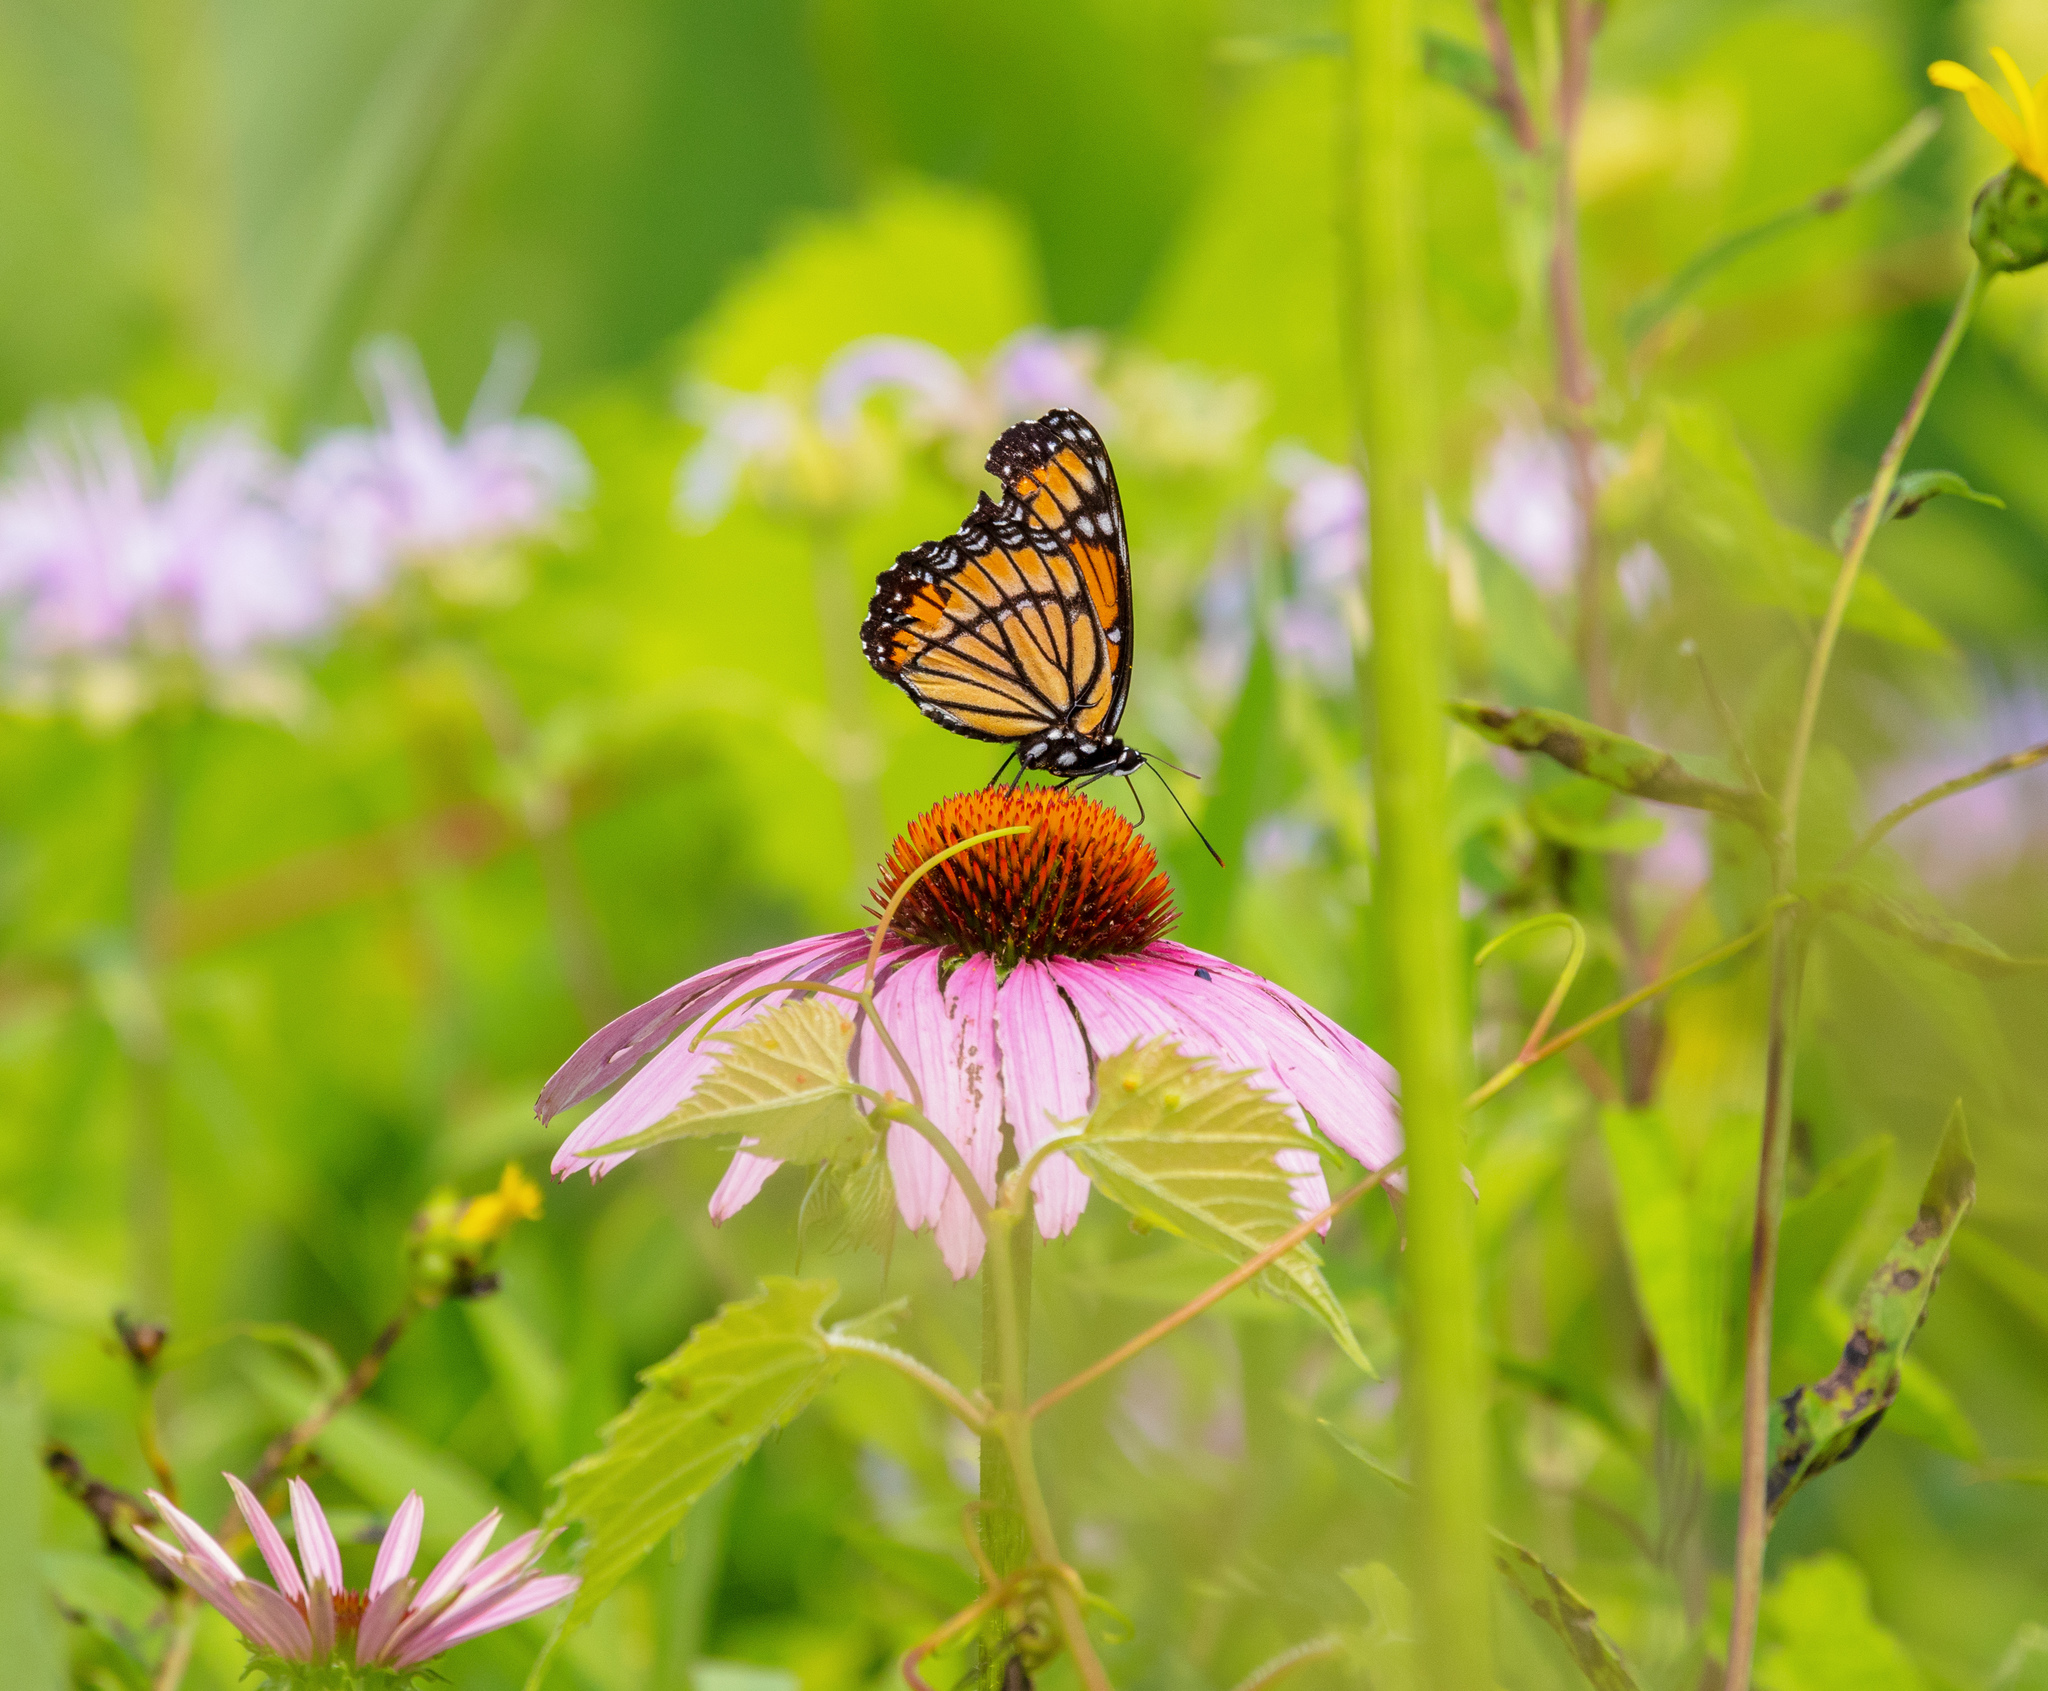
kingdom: Animalia
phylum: Arthropoda
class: Insecta
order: Lepidoptera
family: Nymphalidae
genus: Limenitis
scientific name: Limenitis archippus
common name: Viceroy
